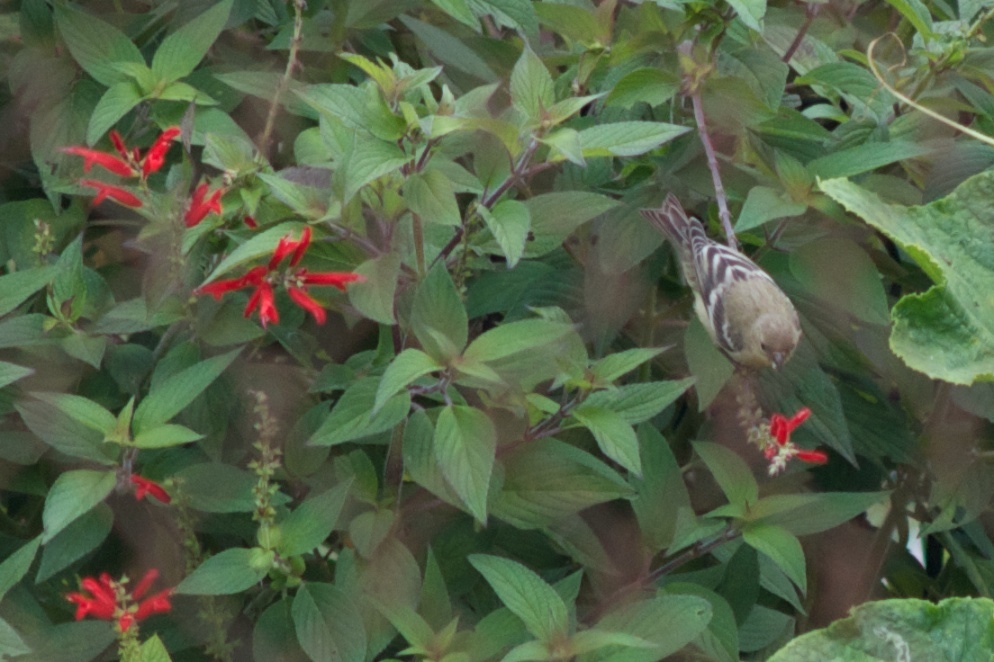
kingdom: Animalia
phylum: Chordata
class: Aves
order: Passeriformes
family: Fringillidae
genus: Spinus
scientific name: Spinus psaltria
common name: Lesser goldfinch
